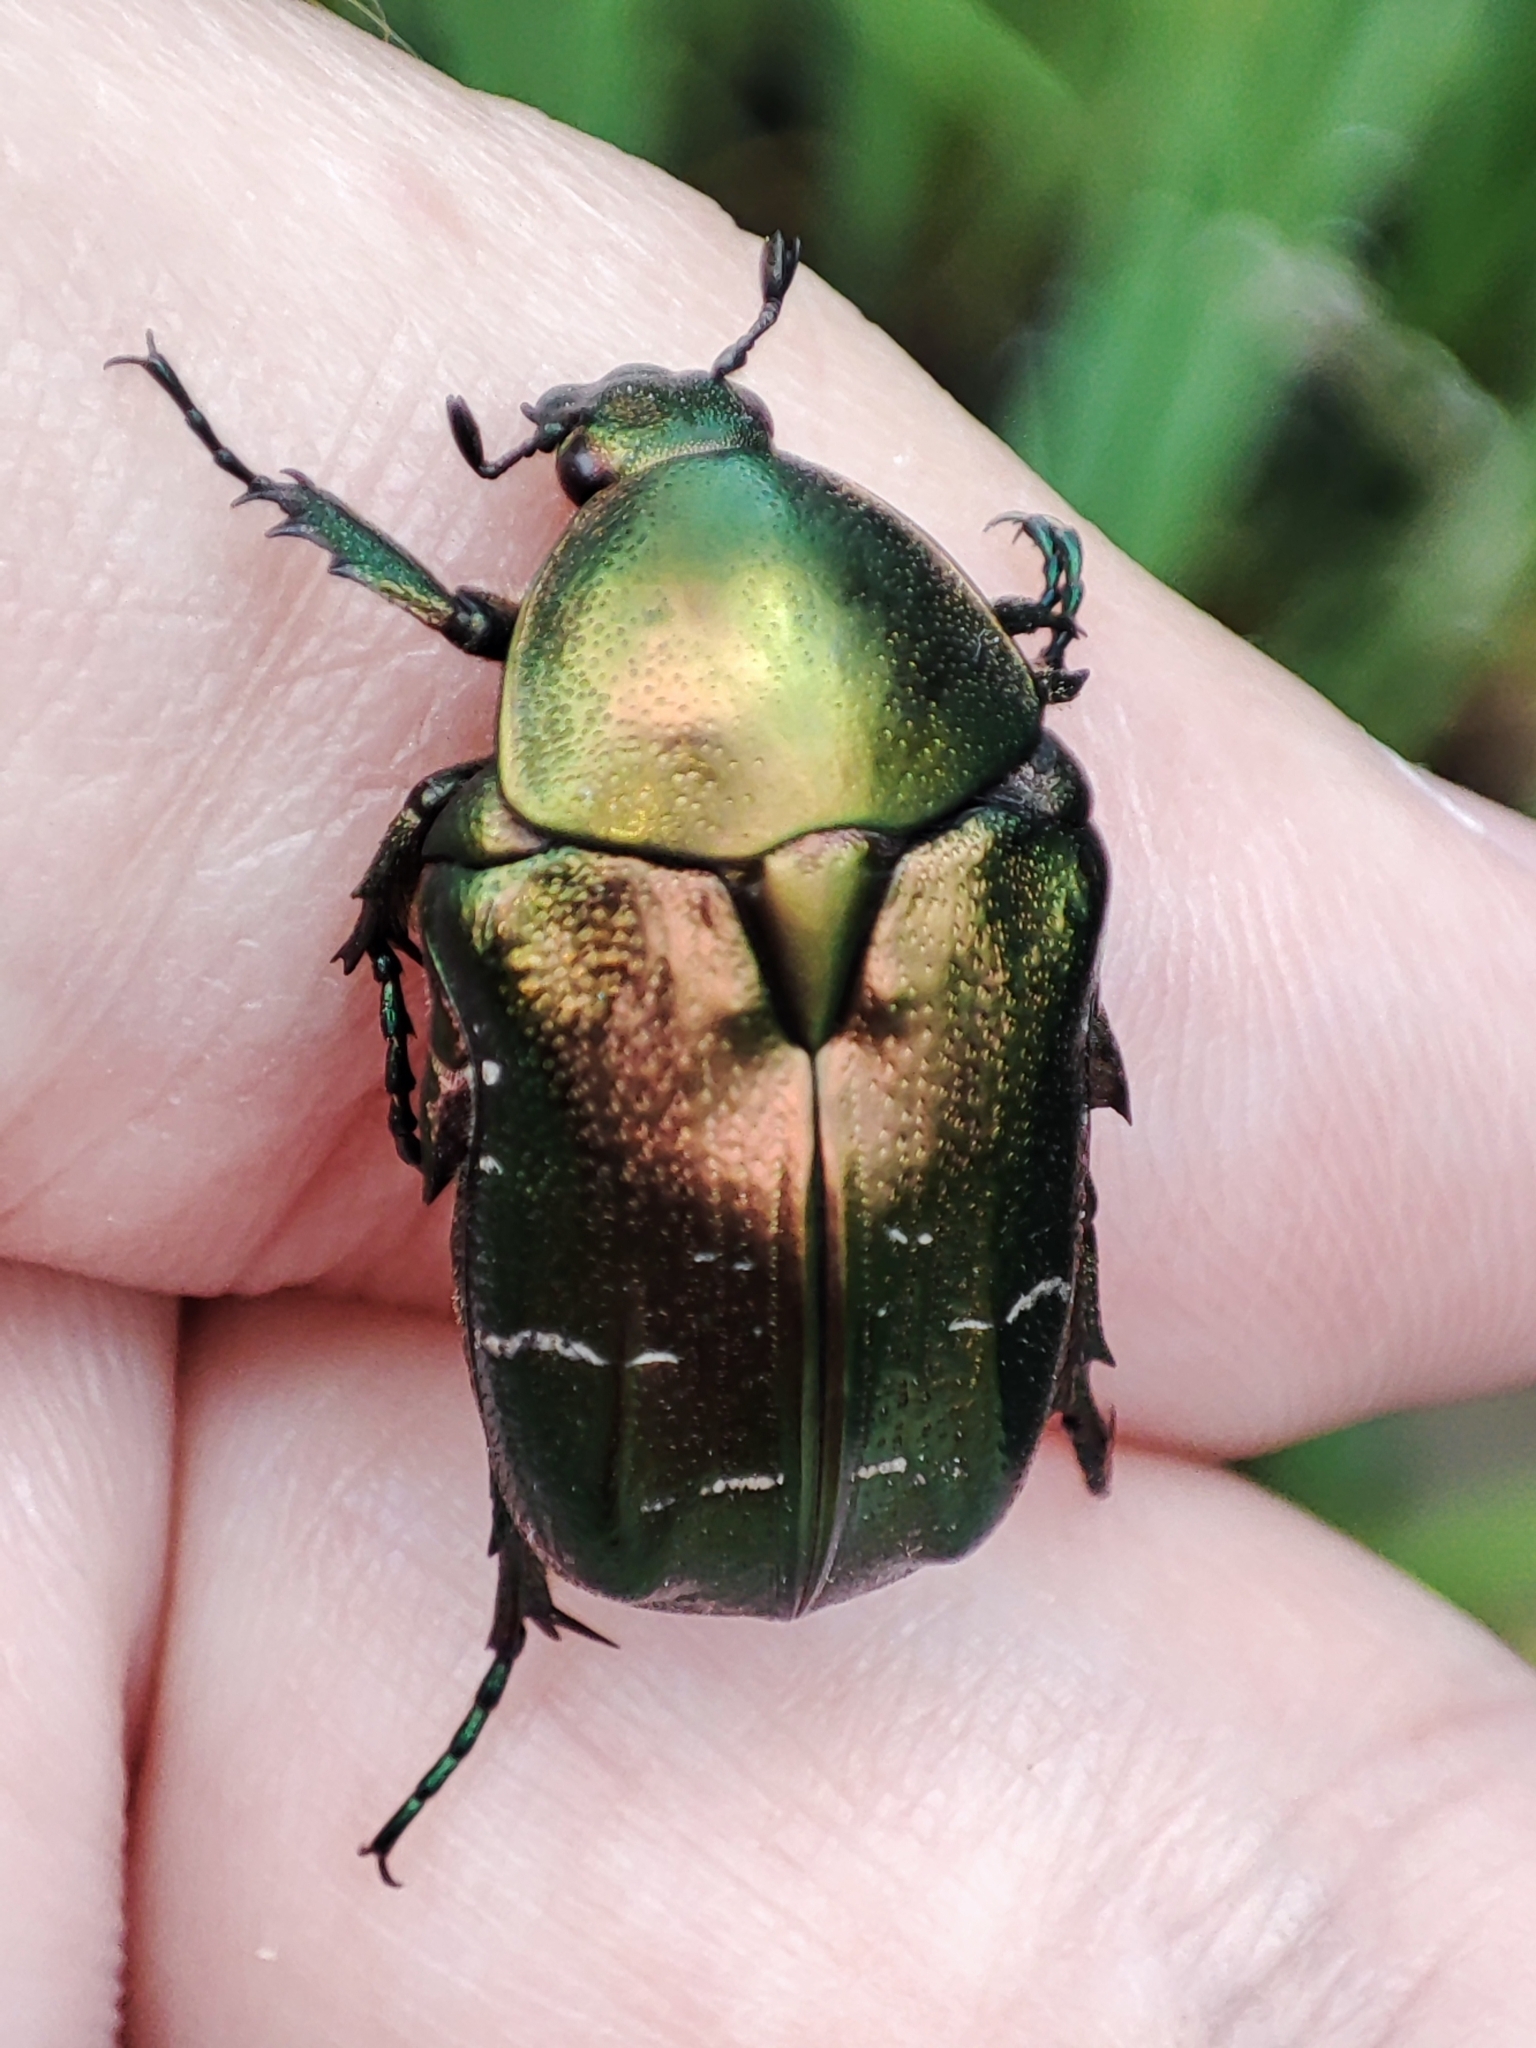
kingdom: Animalia
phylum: Arthropoda
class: Insecta
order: Coleoptera
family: Scarabaeidae
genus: Cetonia
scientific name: Cetonia aurata
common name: Rose chafer
